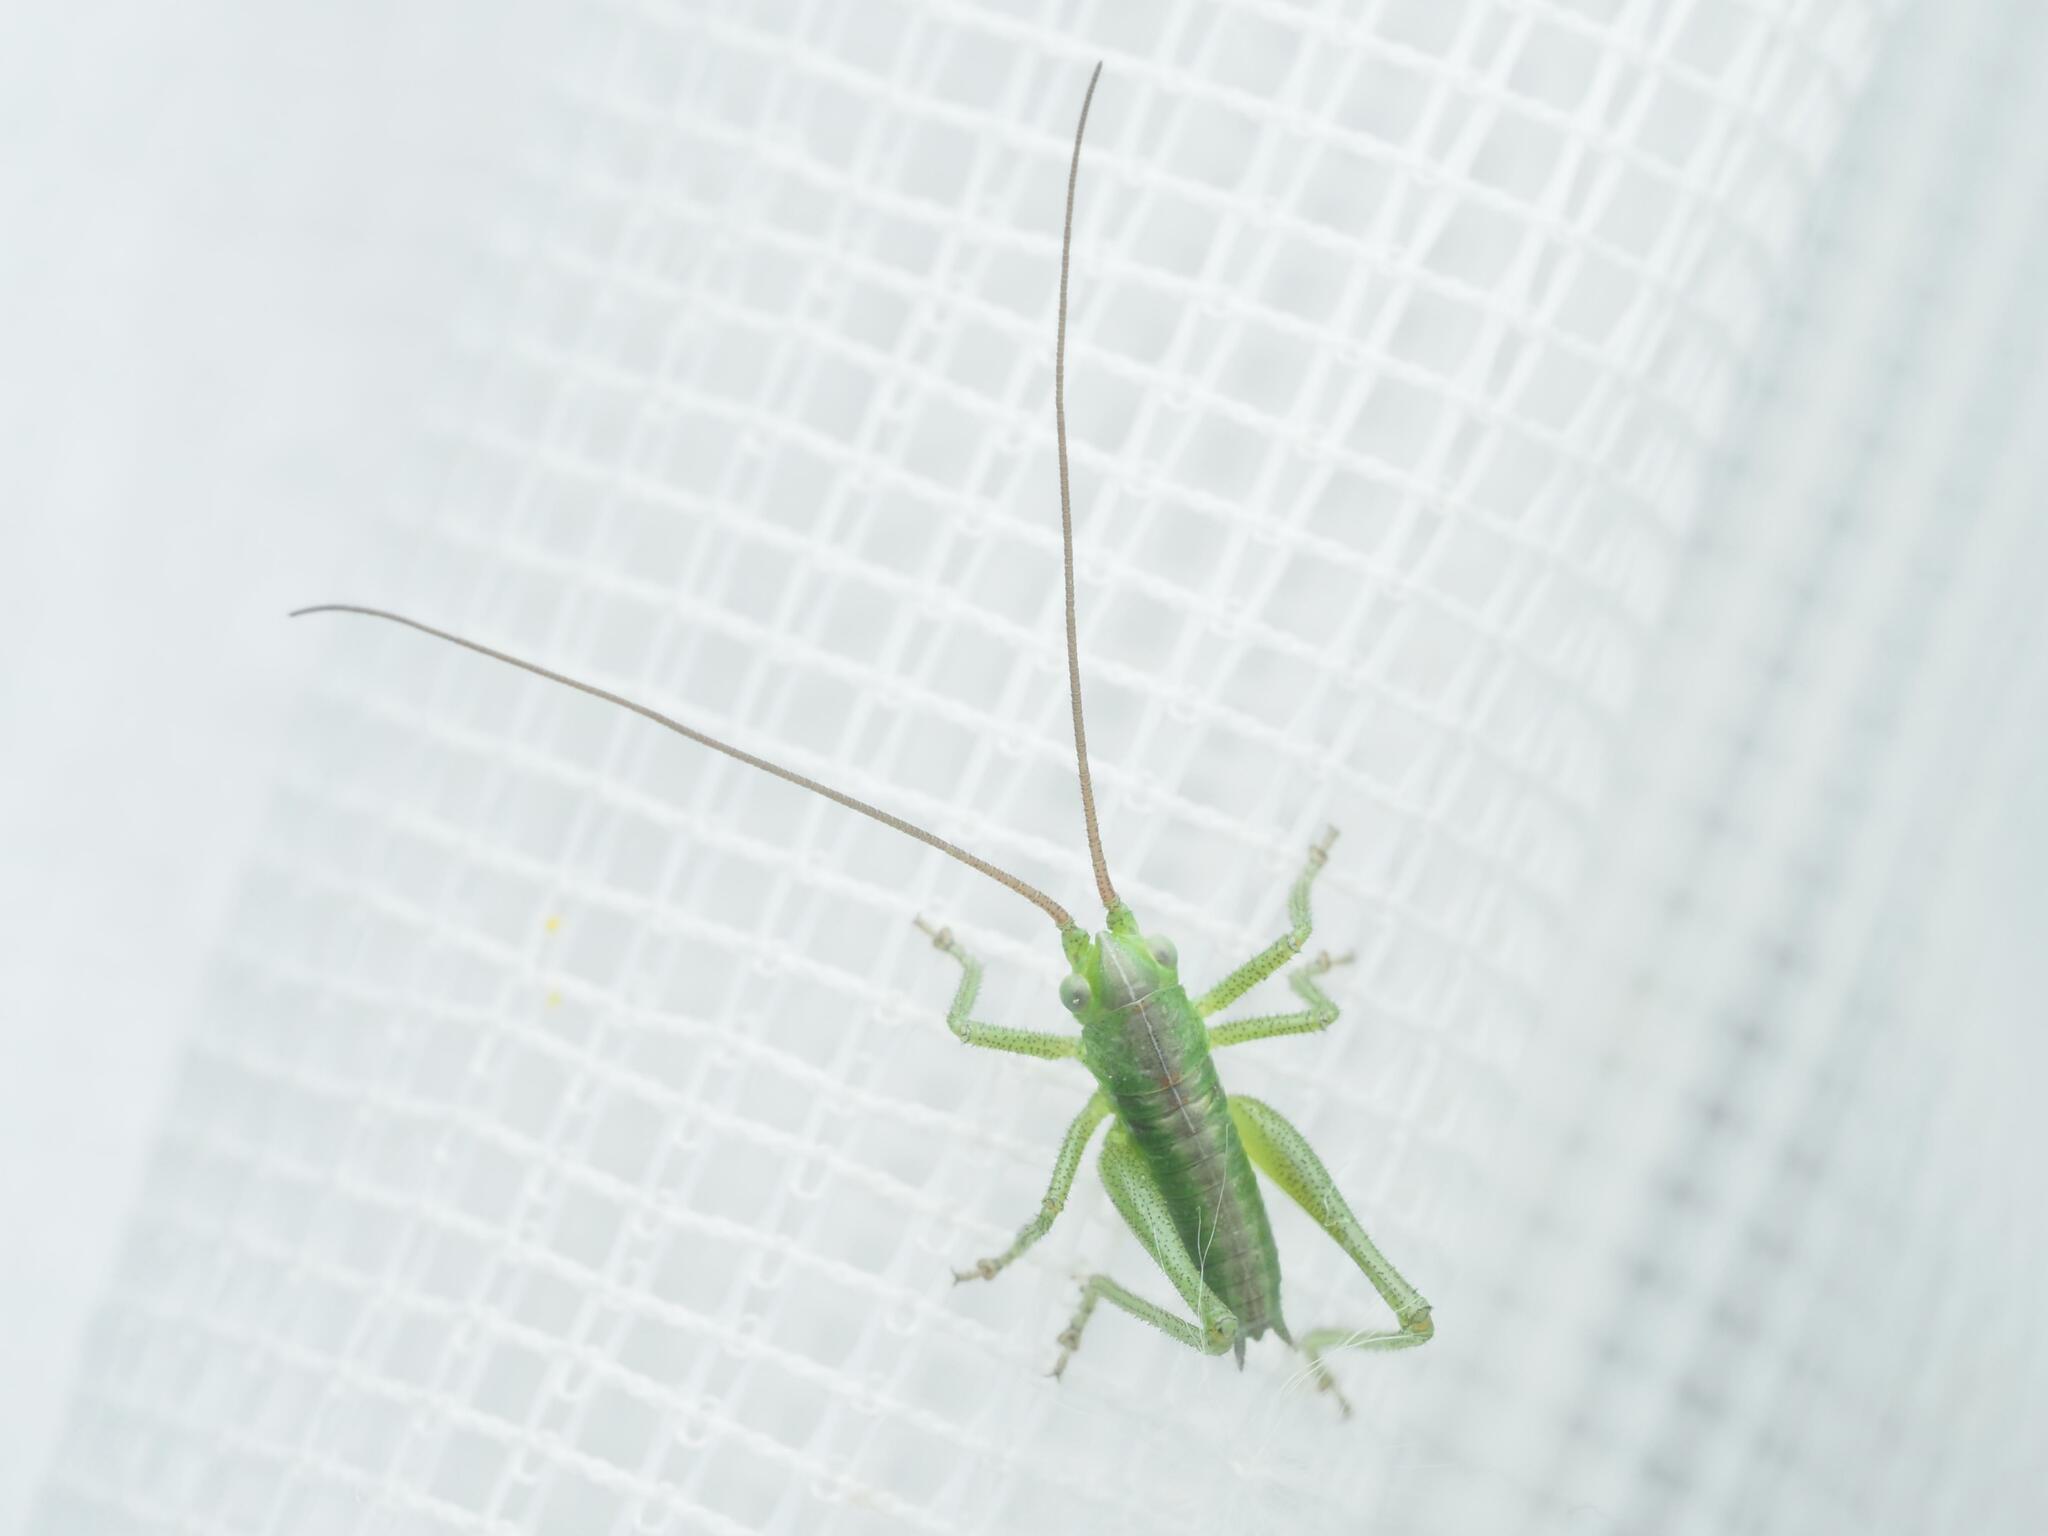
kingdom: Animalia
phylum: Arthropoda
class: Insecta
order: Orthoptera
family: Tettigoniidae
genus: Tettigonia
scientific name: Tettigonia viridissima
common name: Great green bush-cricket
